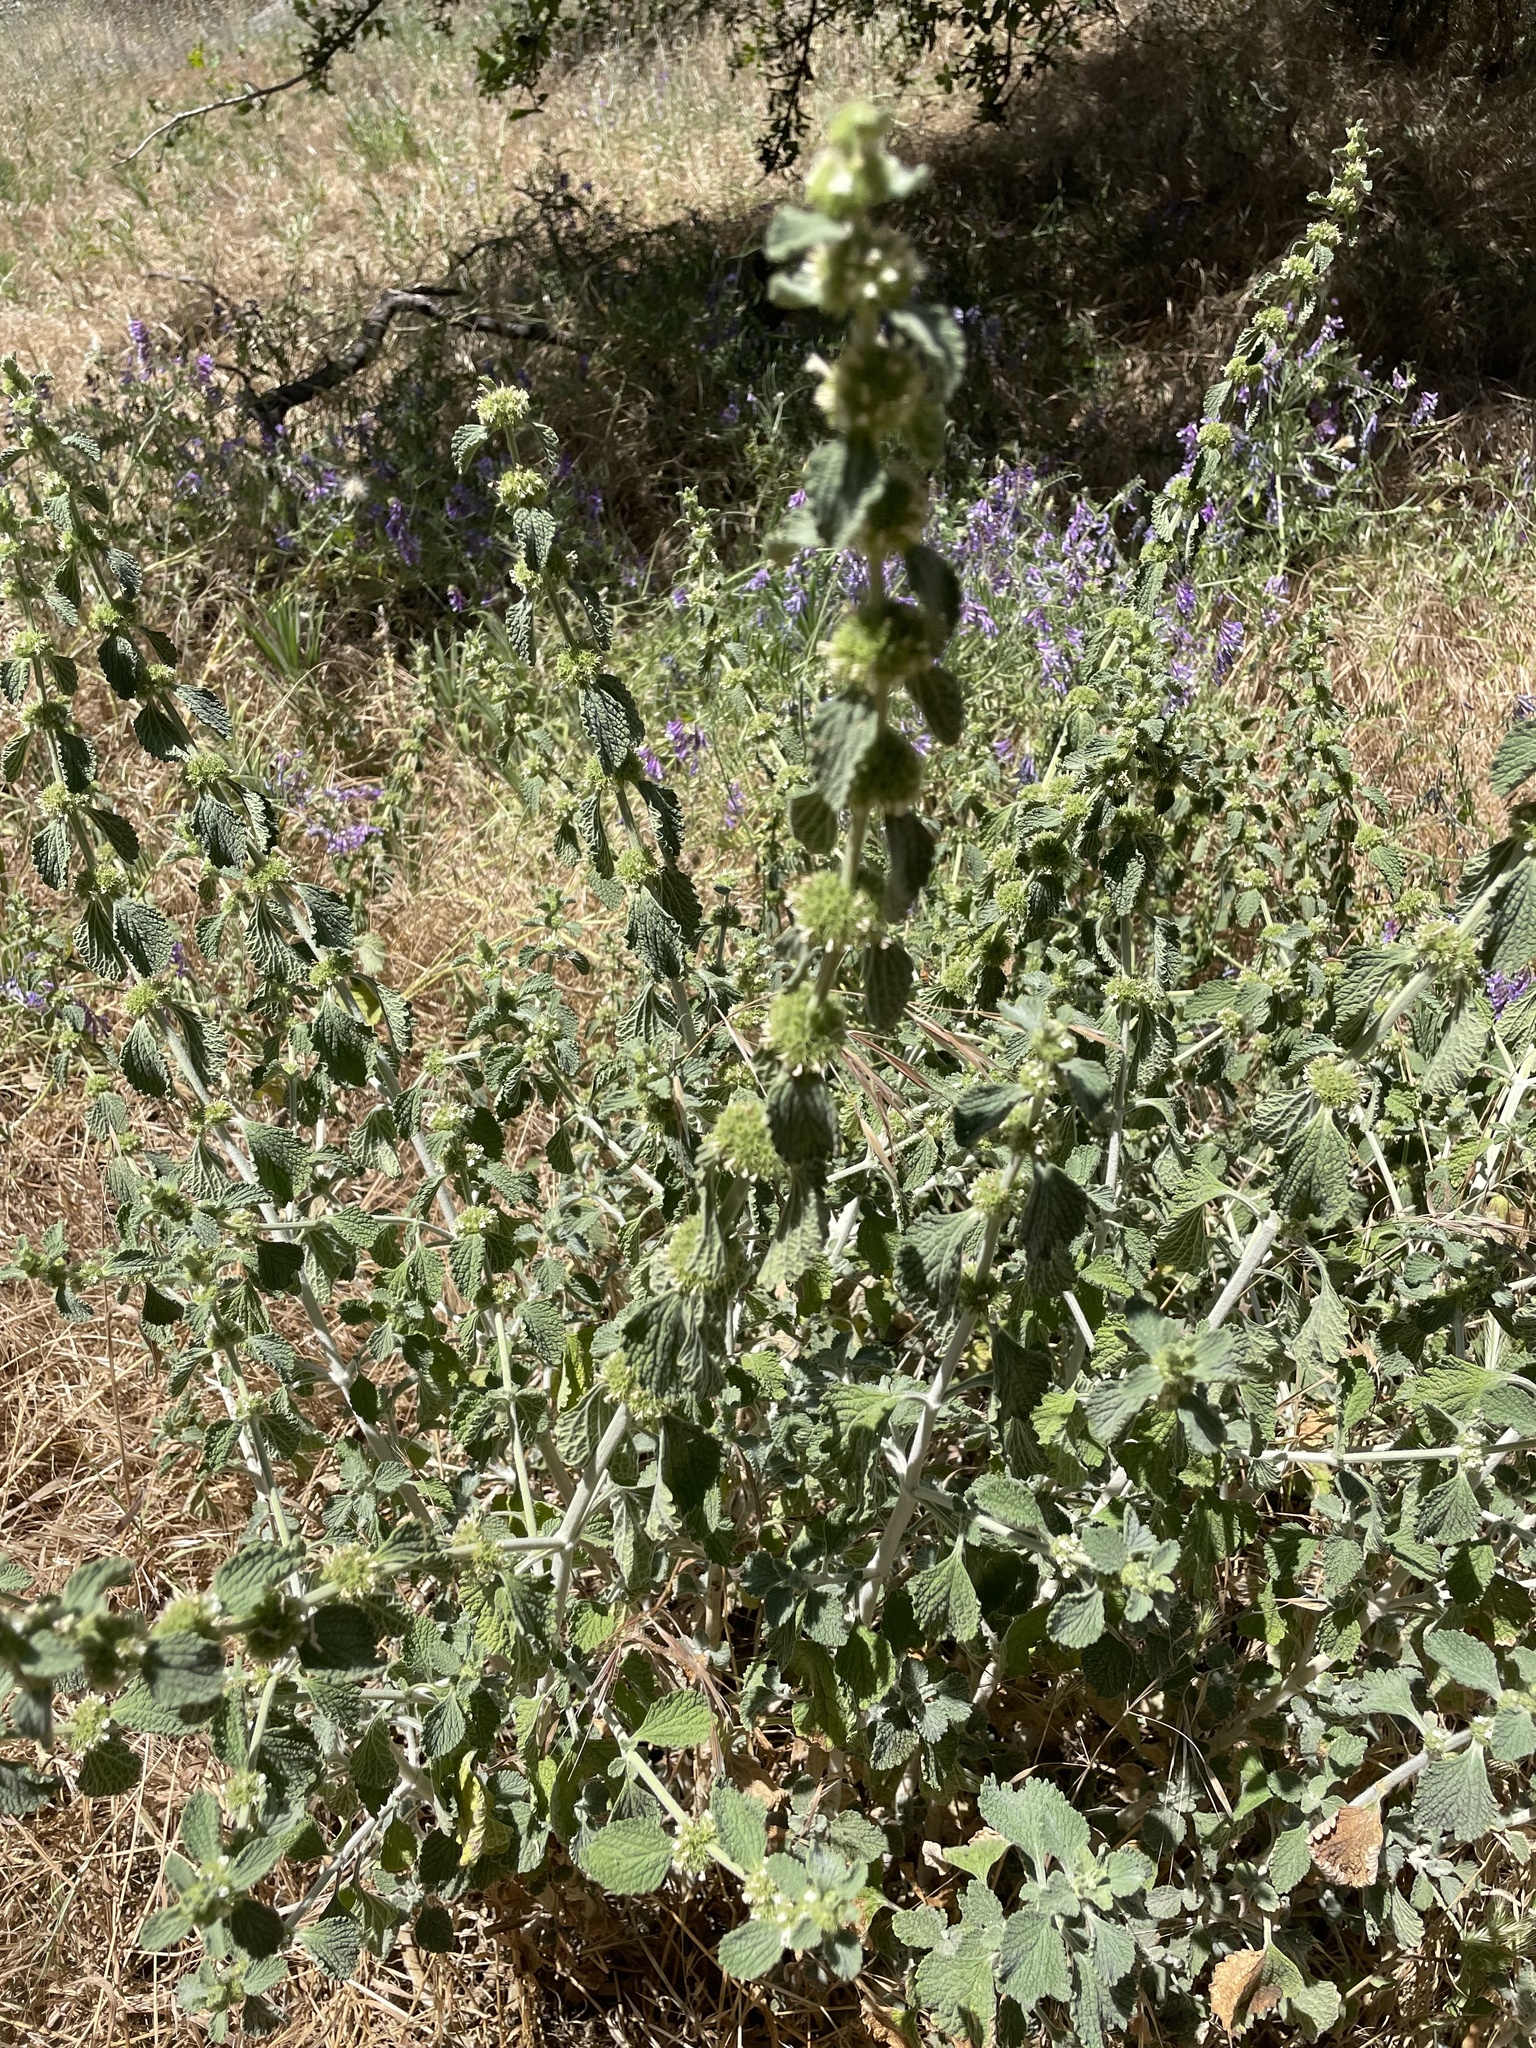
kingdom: Plantae
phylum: Tracheophyta
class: Magnoliopsida
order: Lamiales
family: Lamiaceae
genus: Marrubium
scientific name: Marrubium vulgare
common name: Horehound
